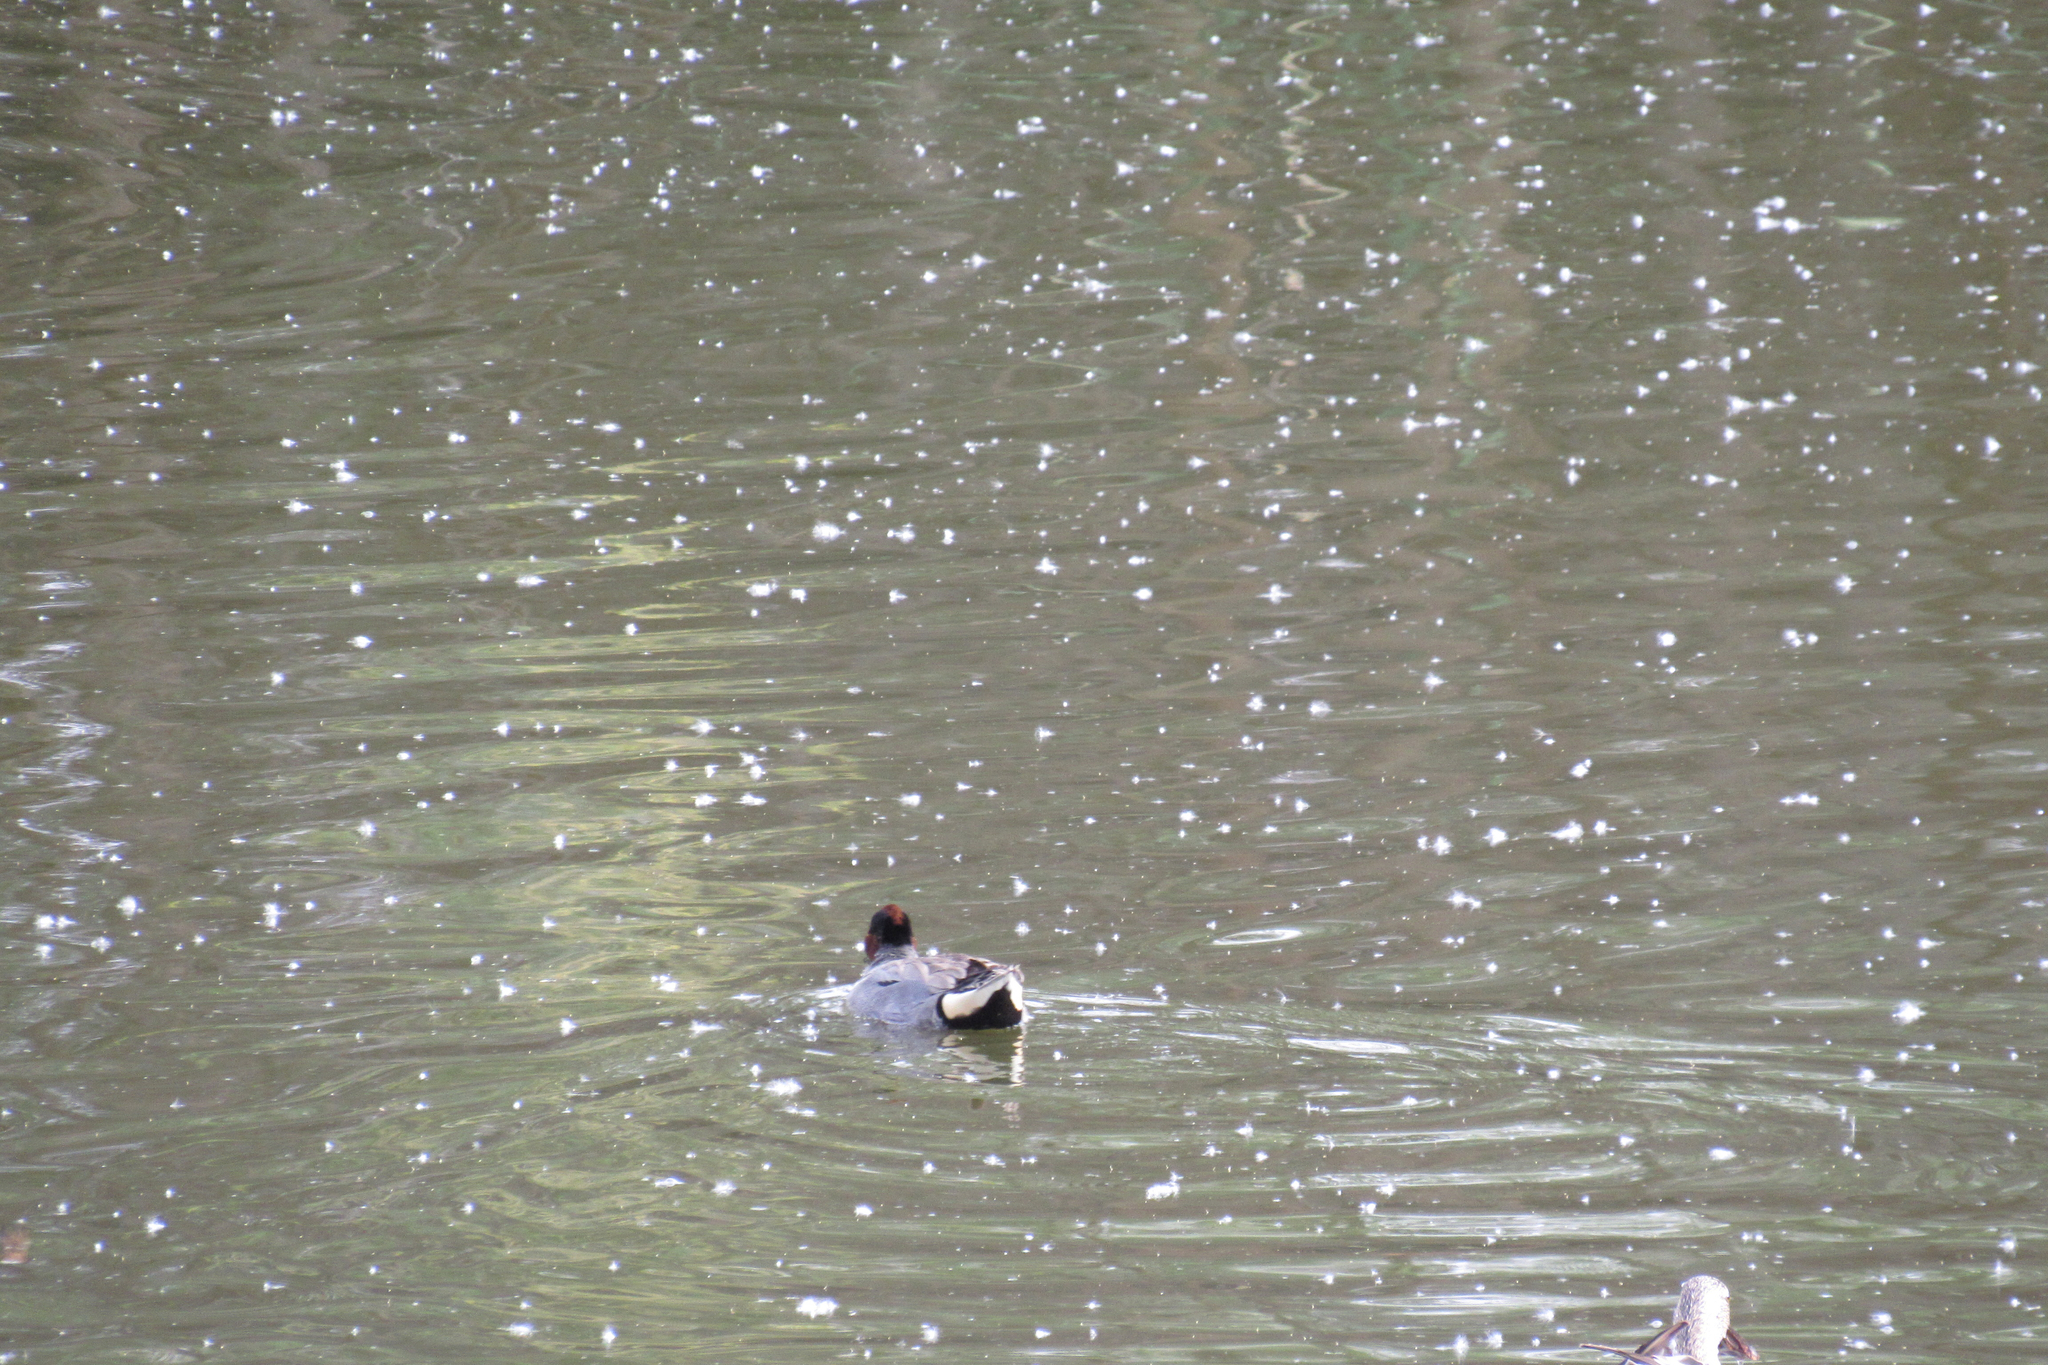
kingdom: Animalia
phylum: Chordata
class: Aves
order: Anseriformes
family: Anatidae
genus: Anas
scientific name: Anas carolinensis
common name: Green-winged teal
